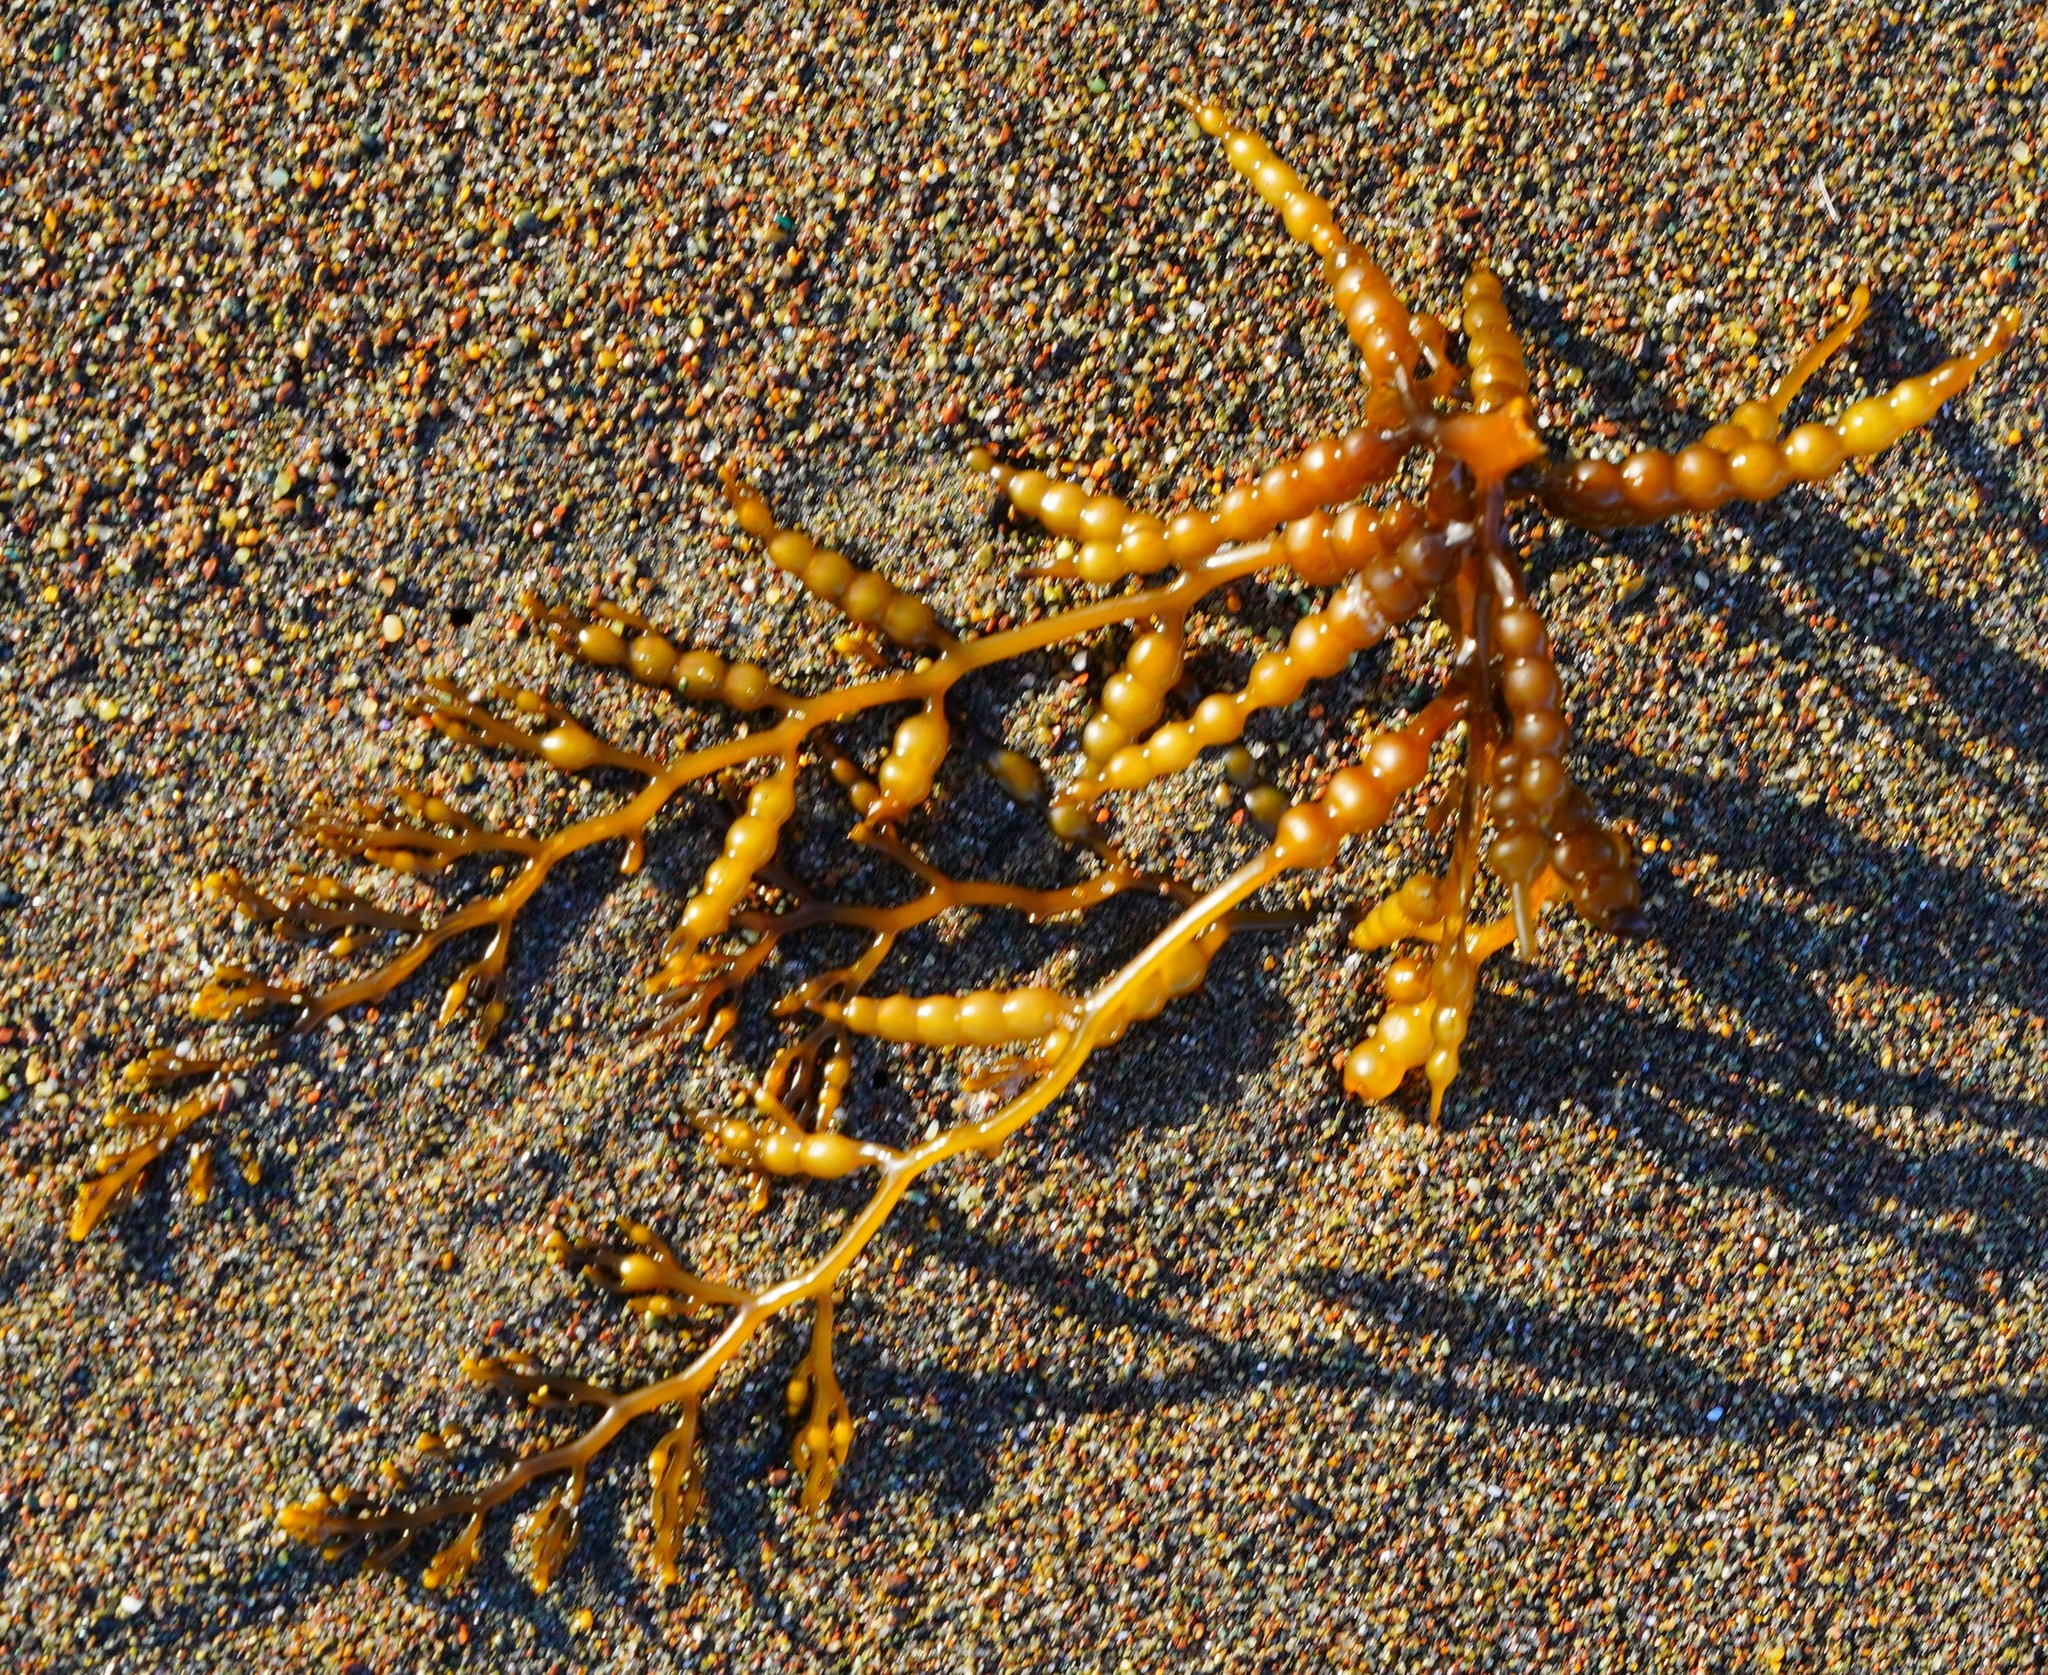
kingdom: Chromista
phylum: Ochrophyta
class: Phaeophyceae
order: Fucales
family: Sargassaceae
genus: Stephanocystis
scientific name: Stephanocystis
